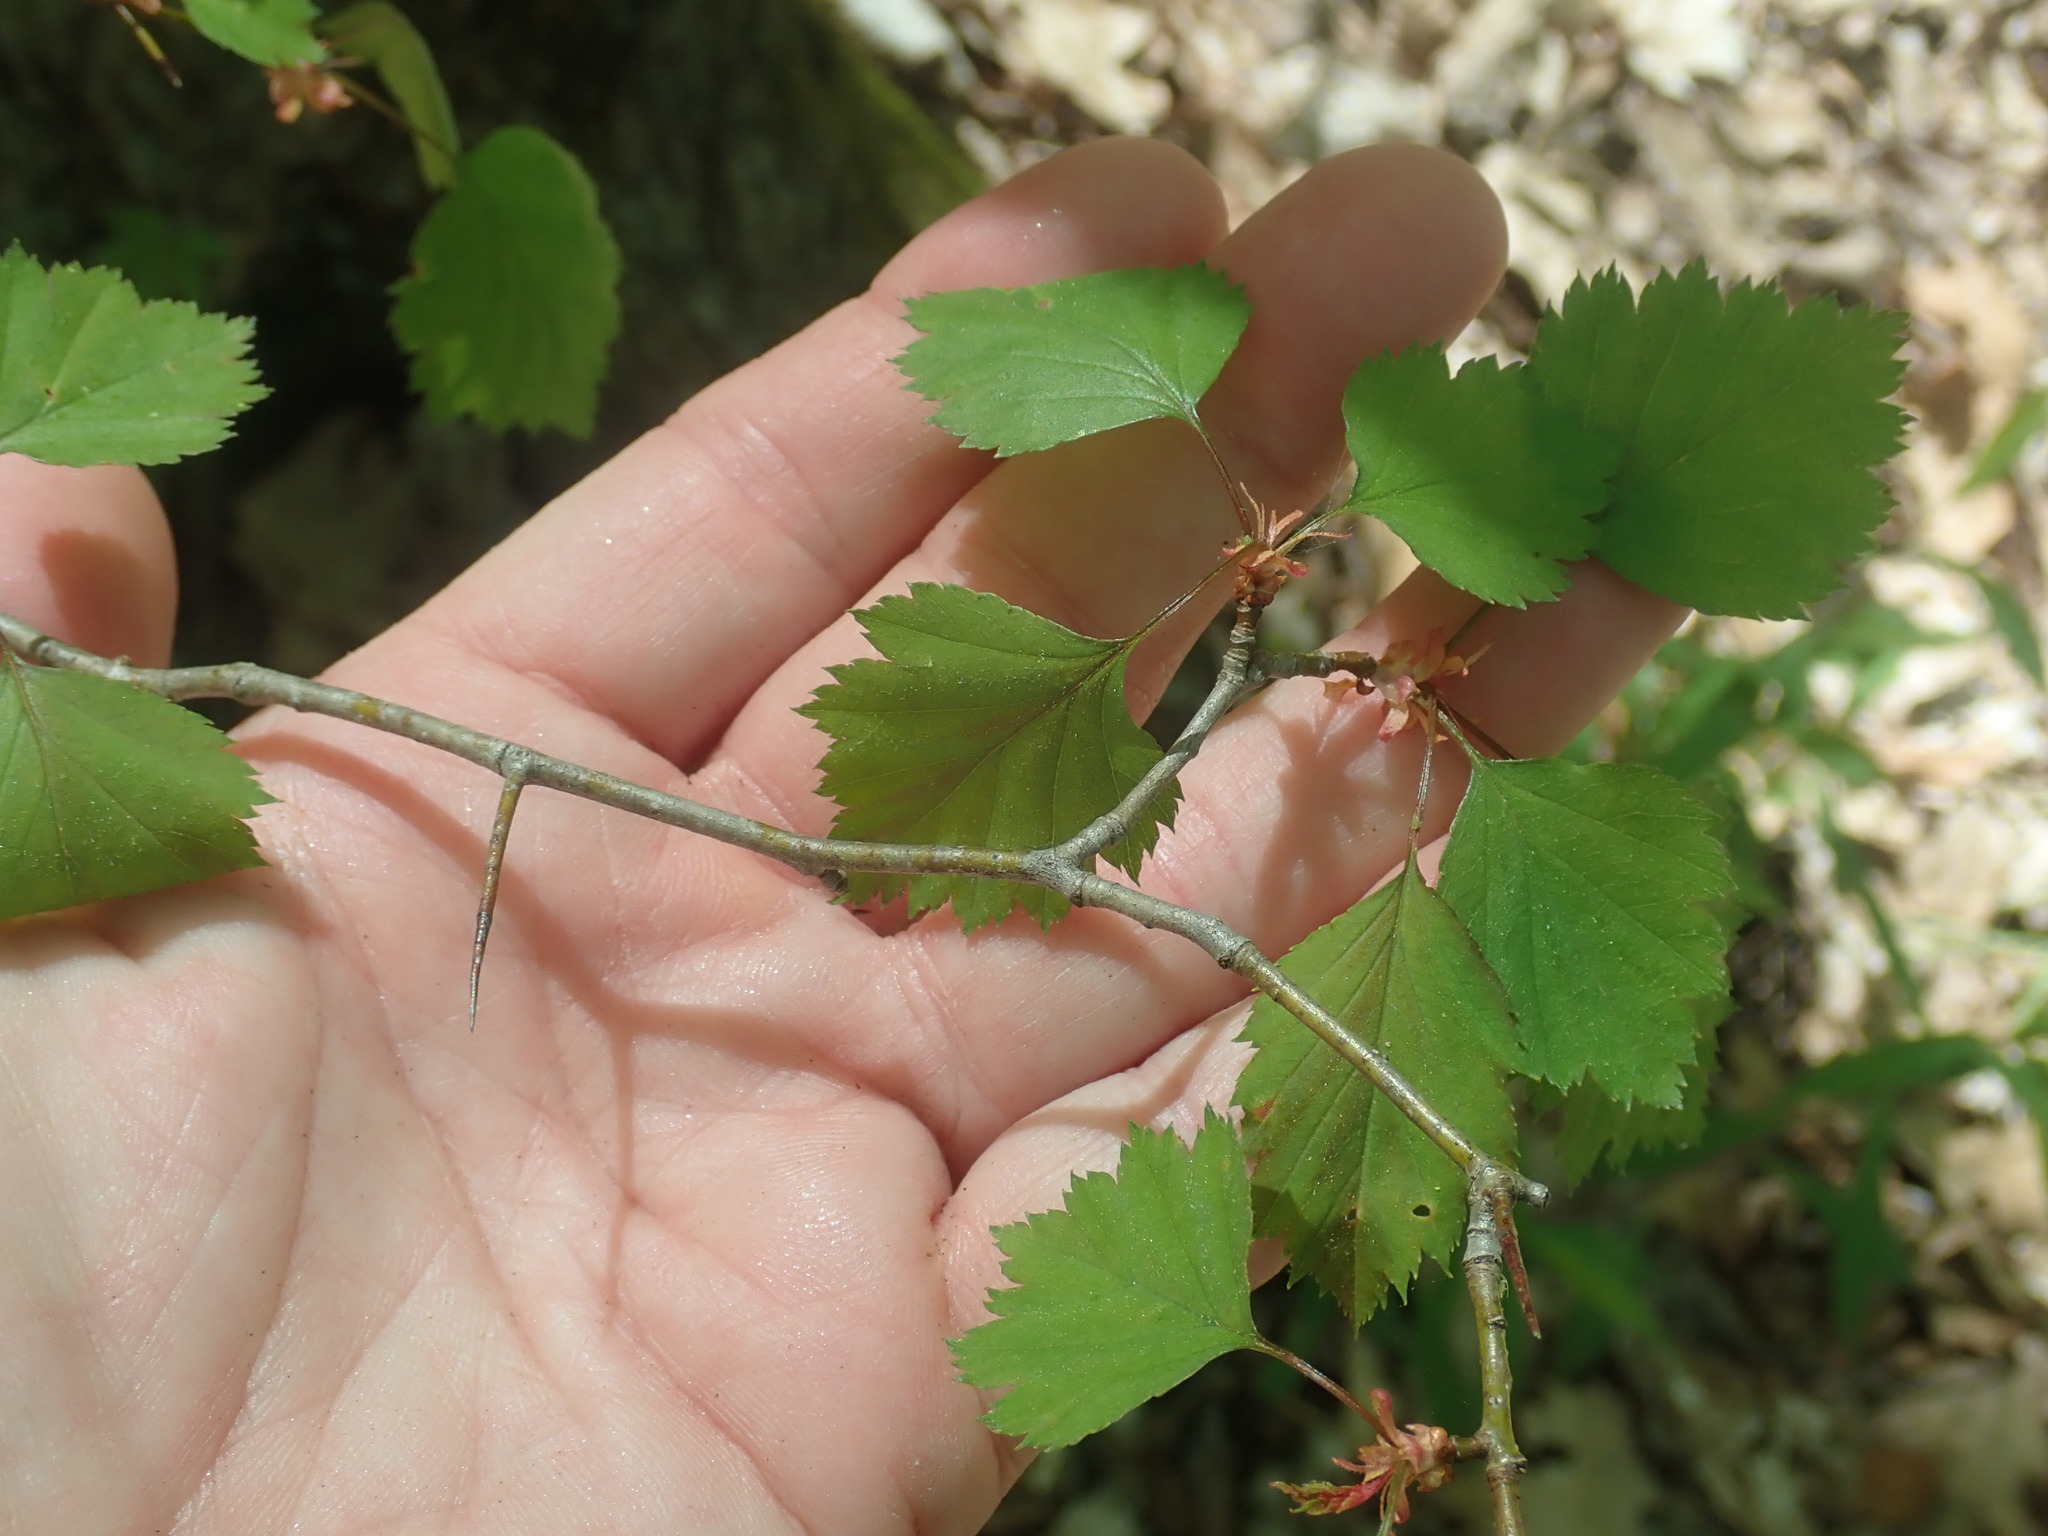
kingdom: Plantae
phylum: Tracheophyta
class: Magnoliopsida
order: Rosales
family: Rosaceae
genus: Crataegus
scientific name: Crataegus
